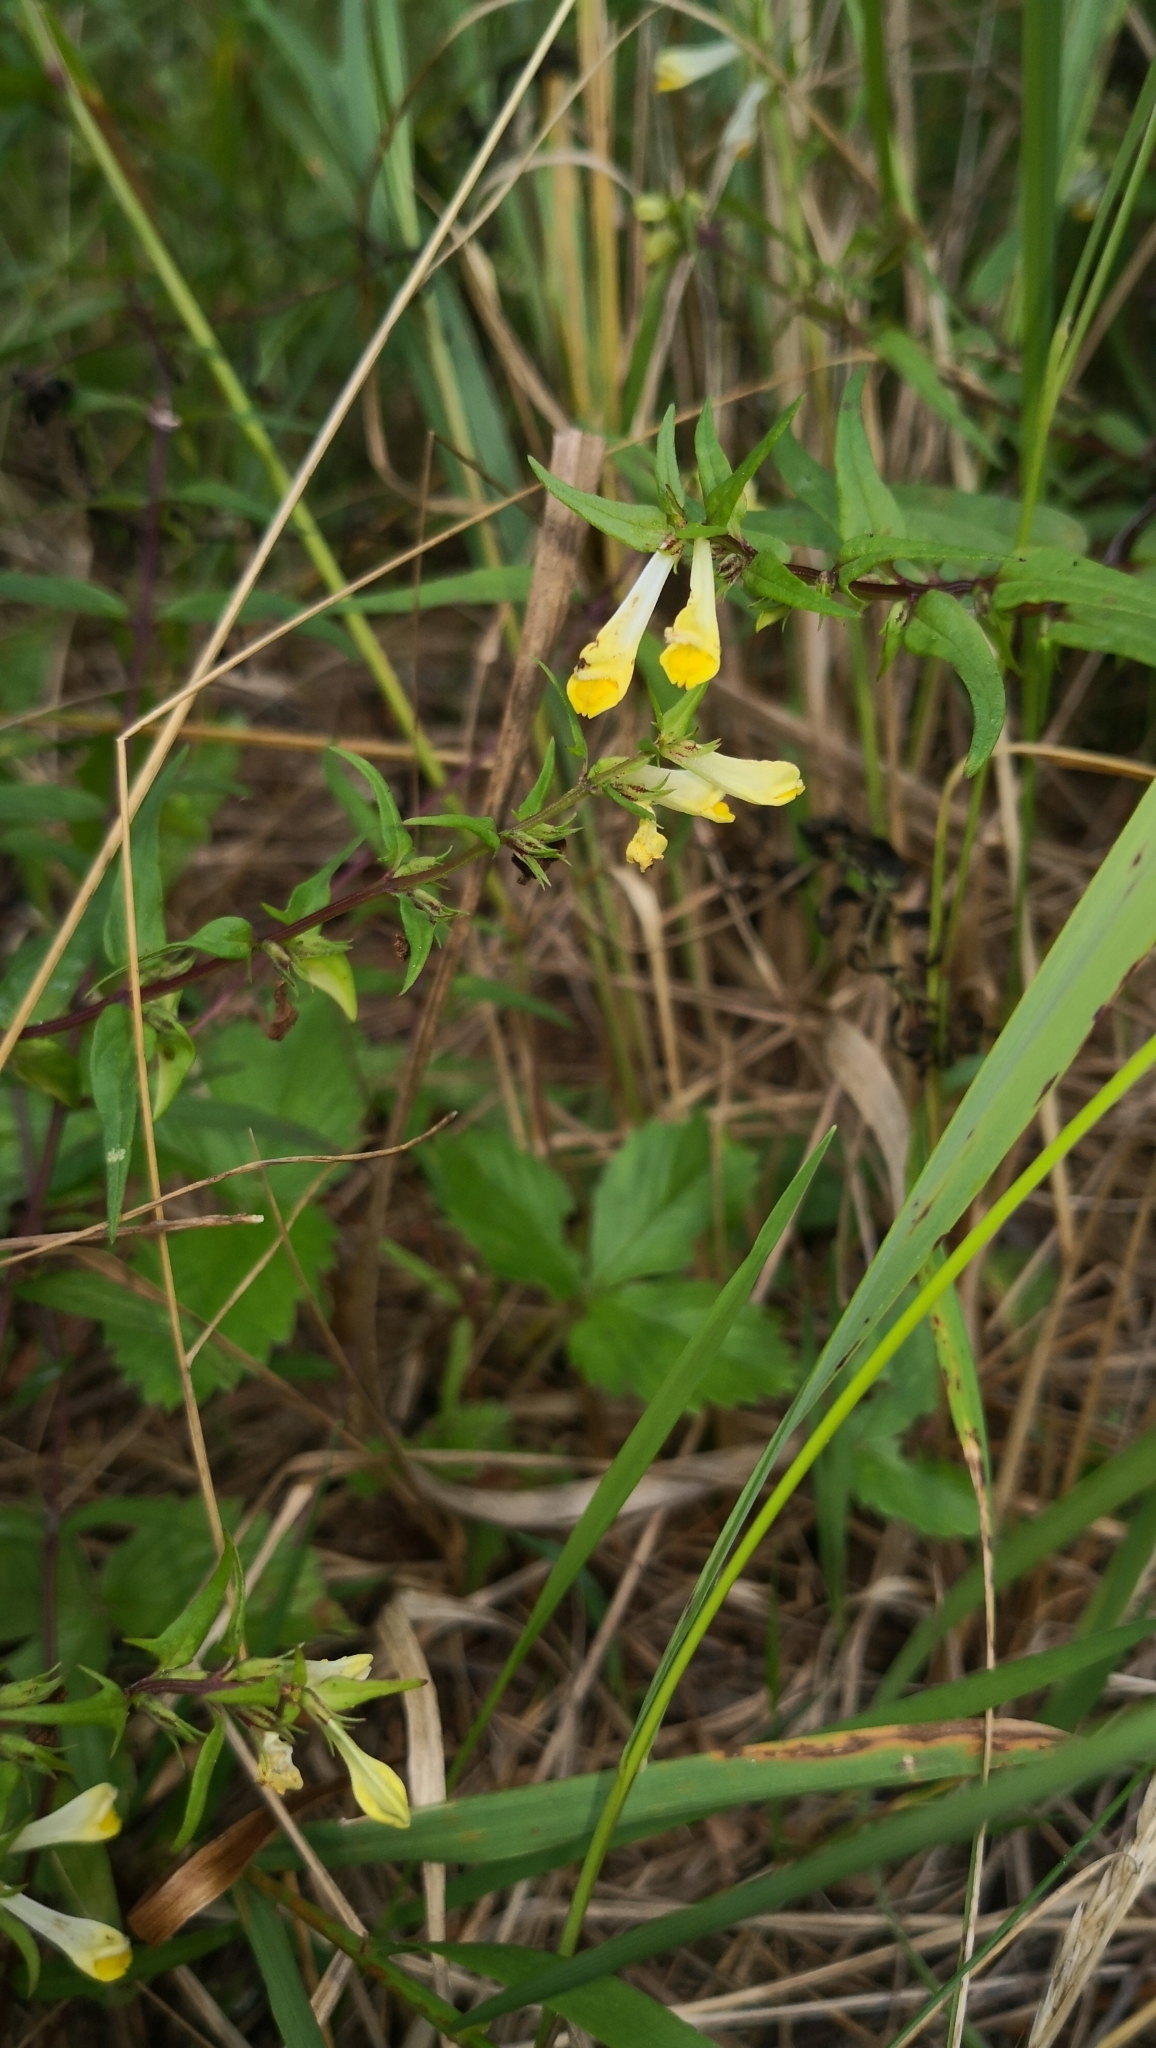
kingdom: Plantae
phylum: Tracheophyta
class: Magnoliopsida
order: Lamiales
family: Orobanchaceae
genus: Melampyrum
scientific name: Melampyrum pratense
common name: Common cow-wheat
